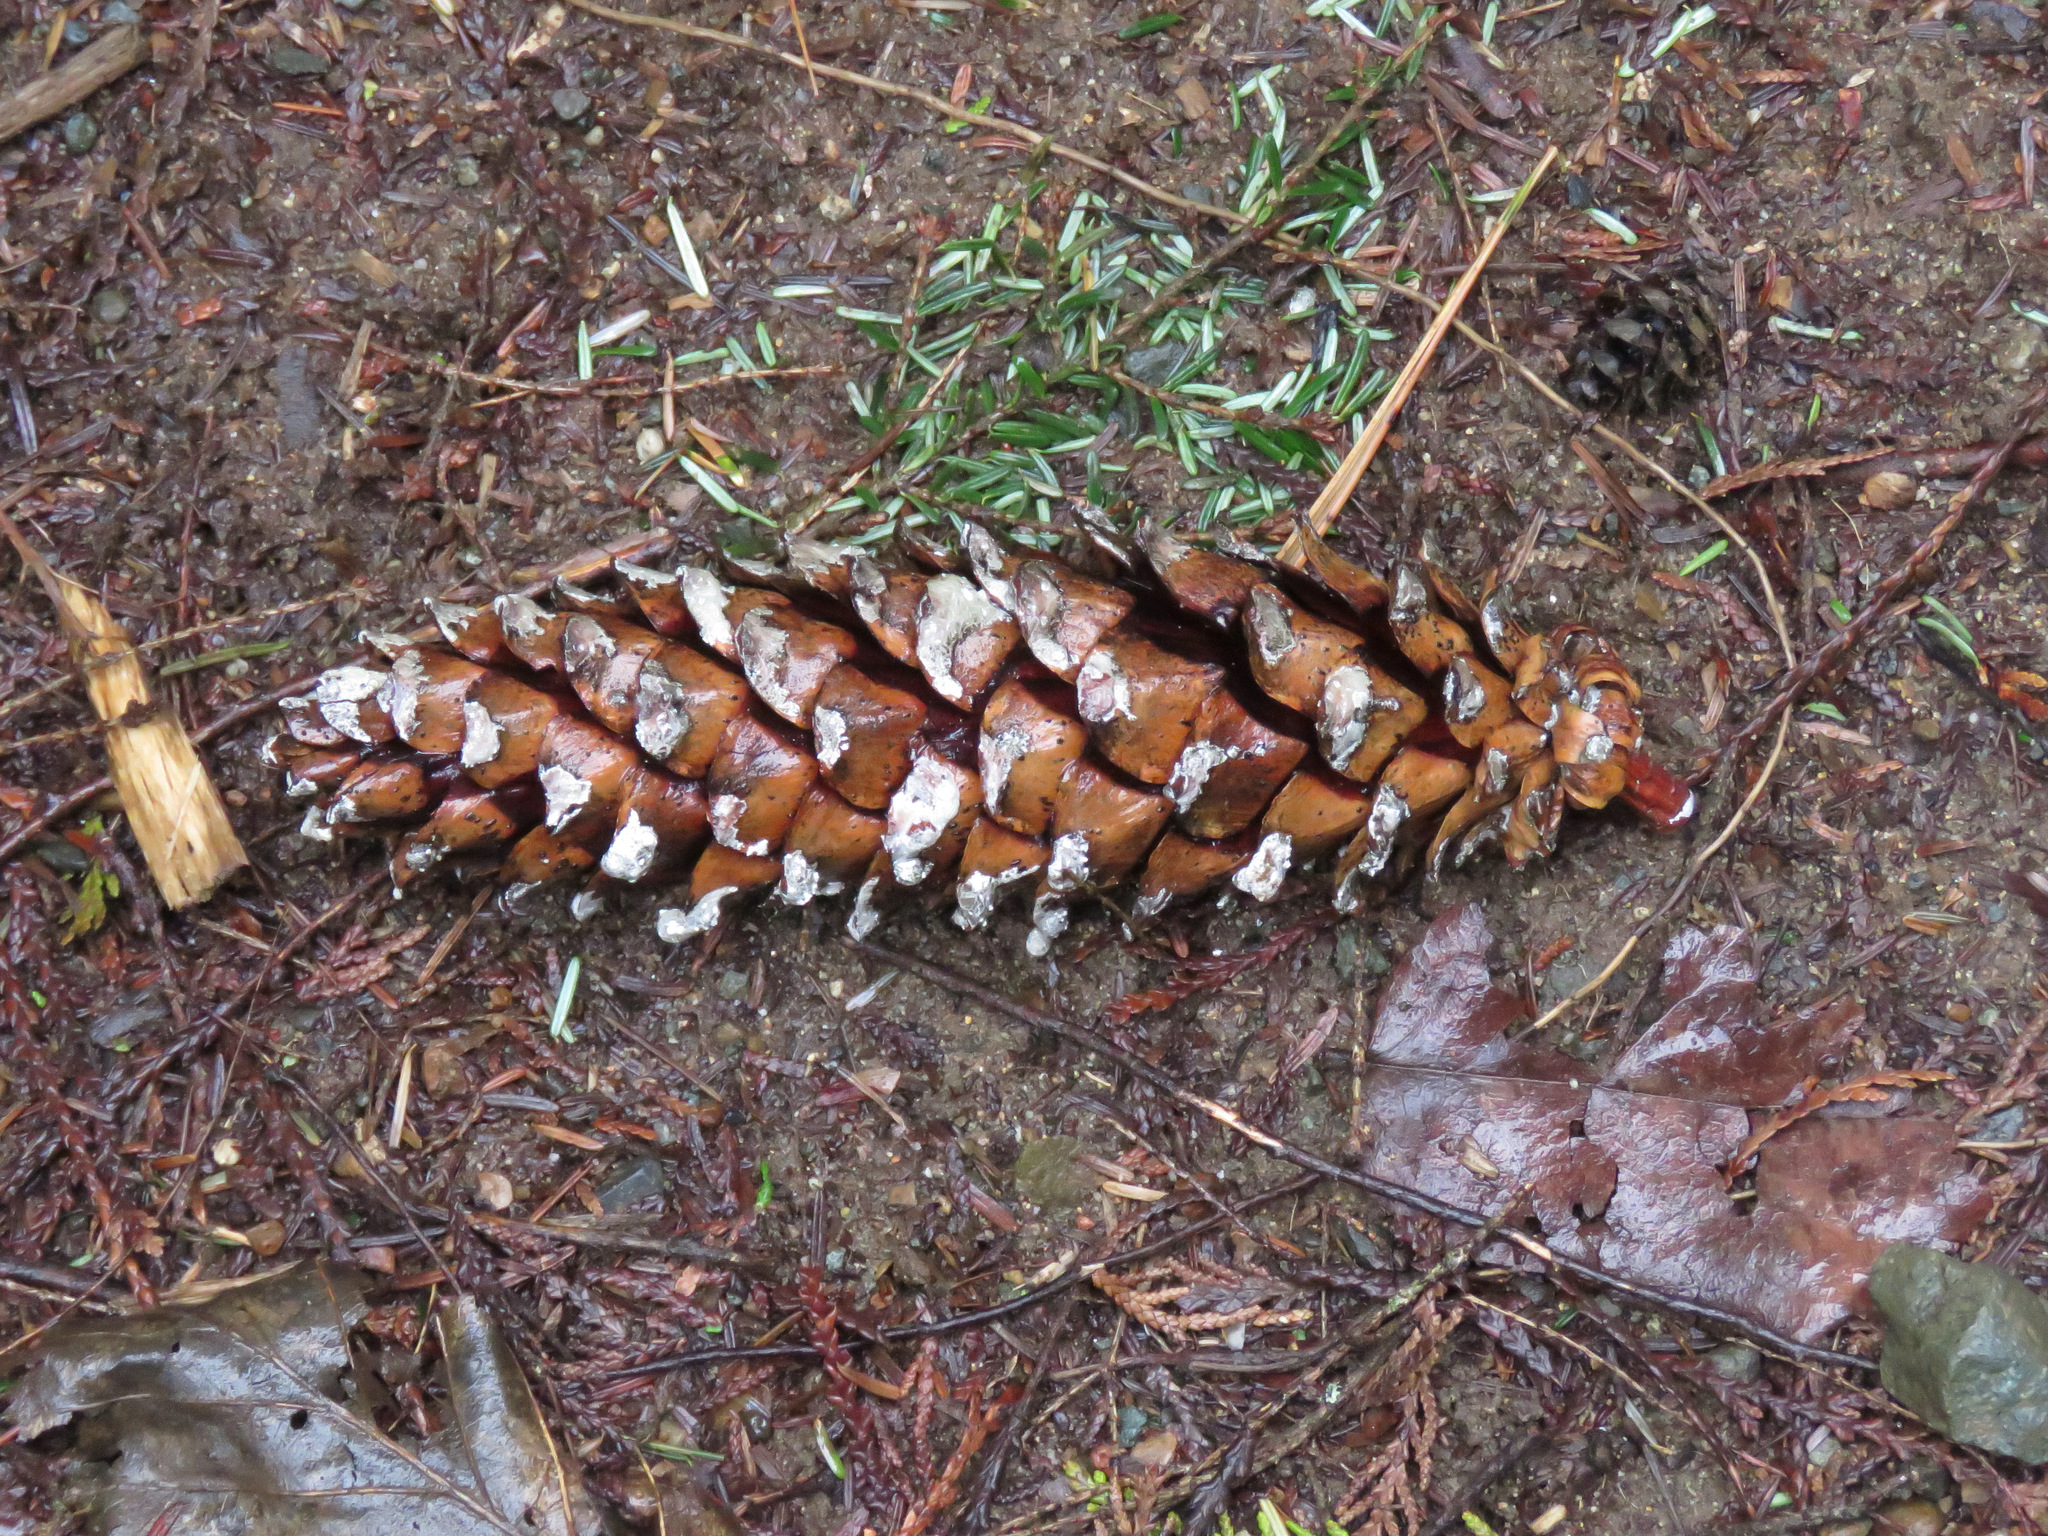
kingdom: Plantae
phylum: Tracheophyta
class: Pinopsida
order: Pinales
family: Pinaceae
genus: Pinus
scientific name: Pinus monticola
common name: Western white pine
